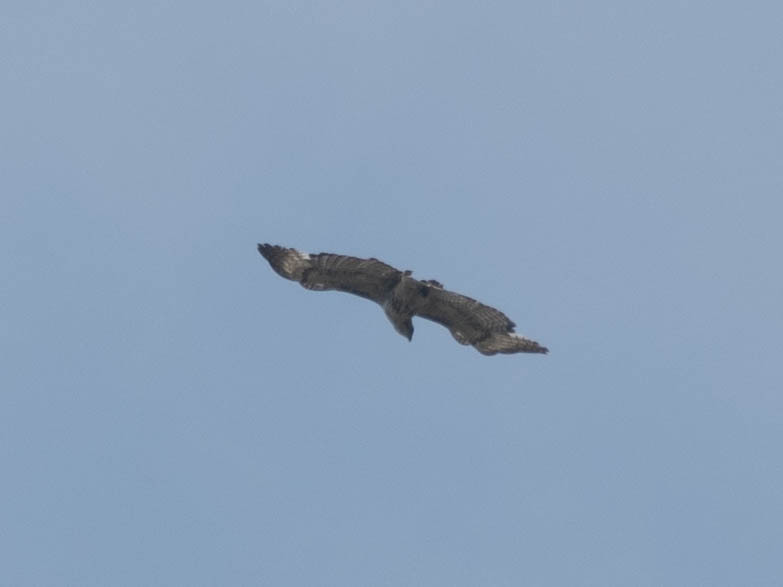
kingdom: Animalia
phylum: Chordata
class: Aves
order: Accipitriformes
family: Accipitridae
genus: Buteo
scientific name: Buteo jamaicensis
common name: Red-tailed hawk
